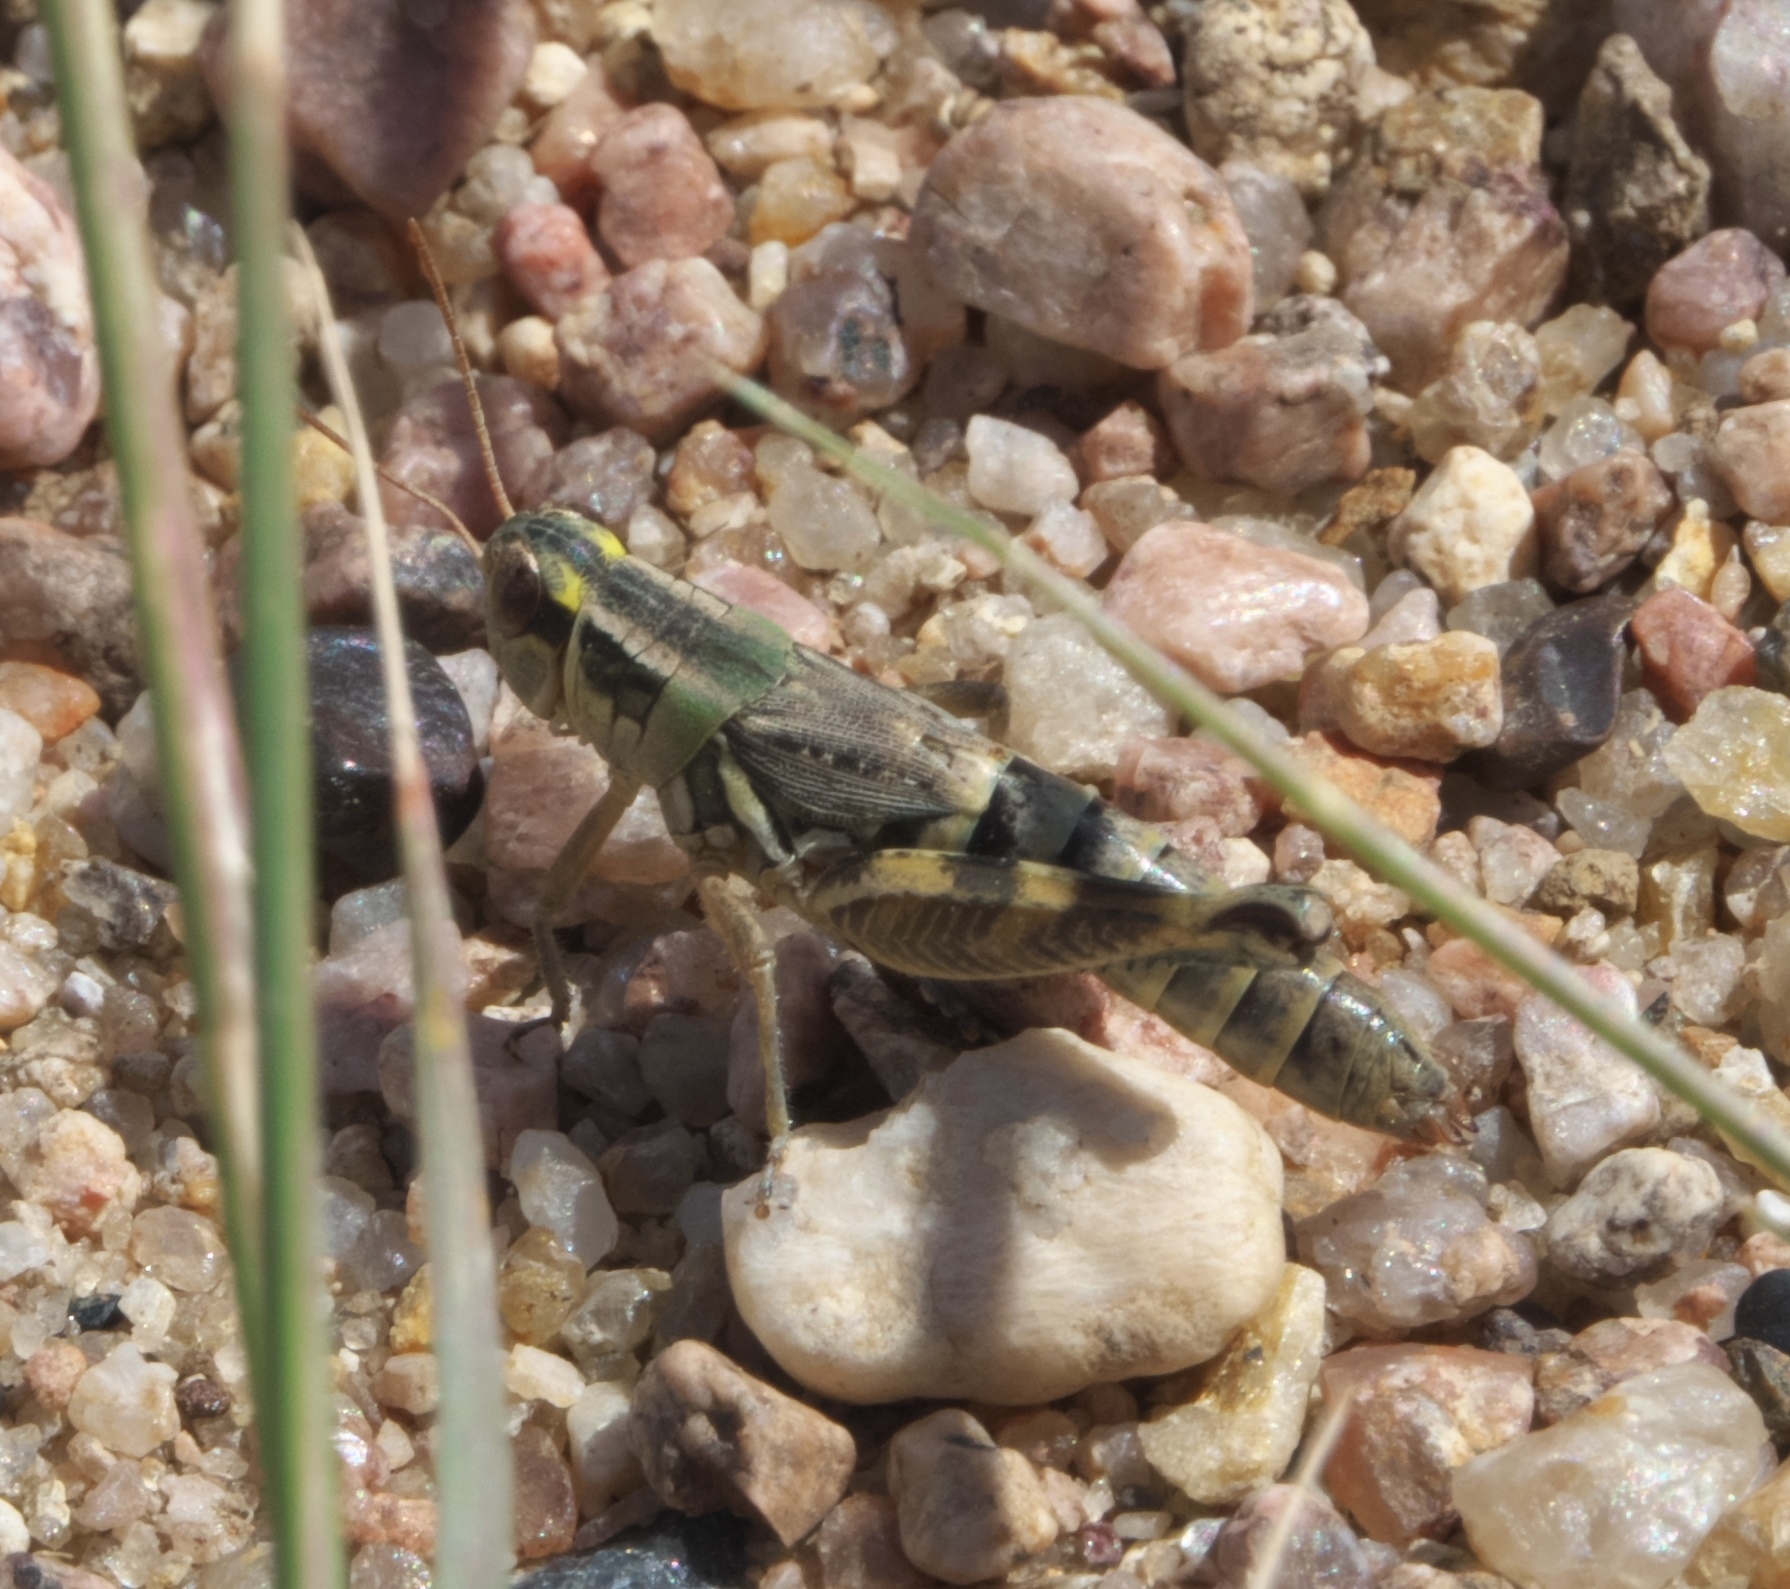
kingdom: Animalia
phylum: Arthropoda
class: Insecta
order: Orthoptera
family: Acrididae
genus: Melanoplus
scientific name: Melanoplus lakinus
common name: Lakin grasshopper
